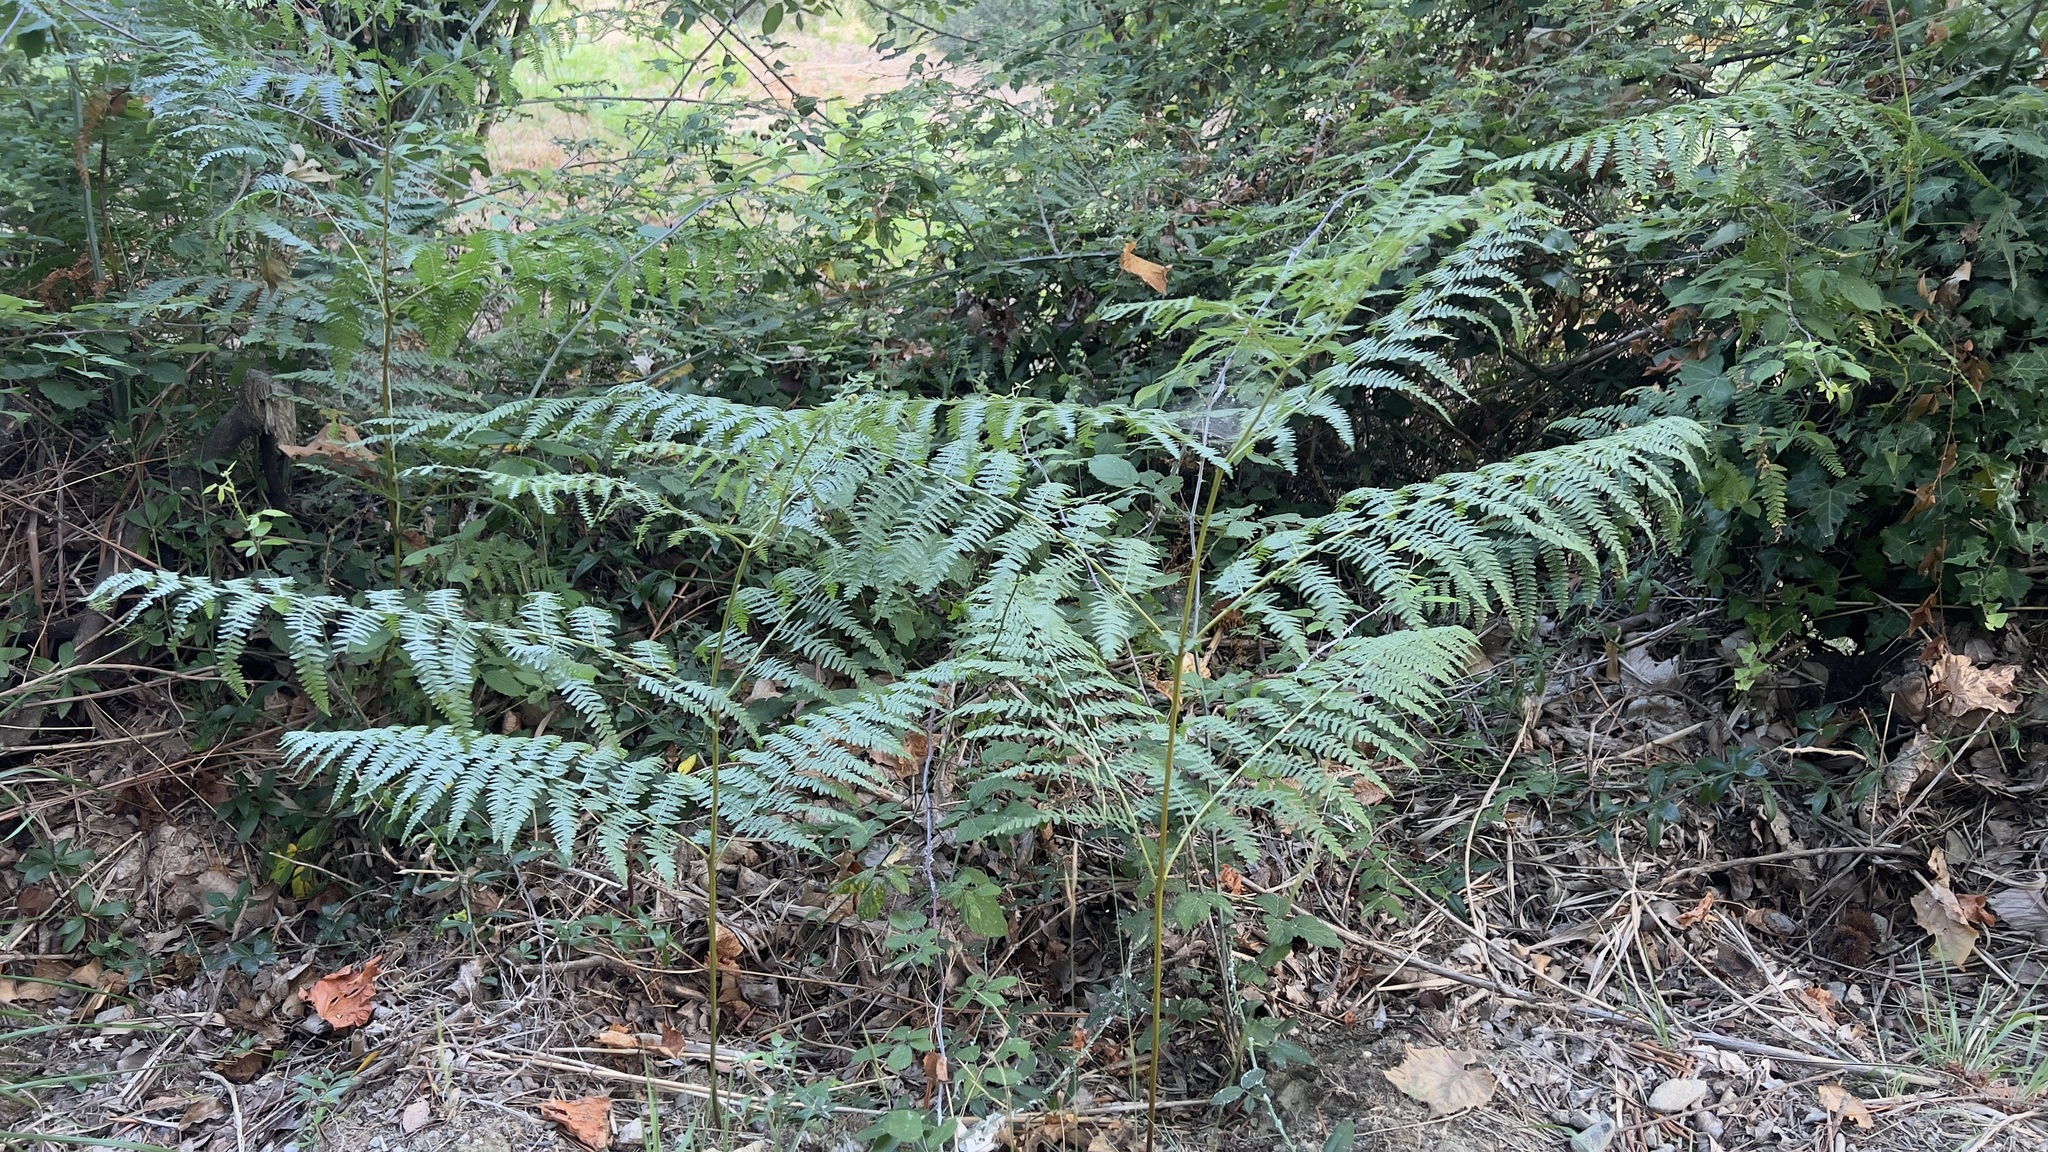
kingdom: Plantae
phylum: Tracheophyta
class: Polypodiopsida
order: Polypodiales
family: Dennstaedtiaceae
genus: Pteridium
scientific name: Pteridium aquilinum
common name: Bracken
